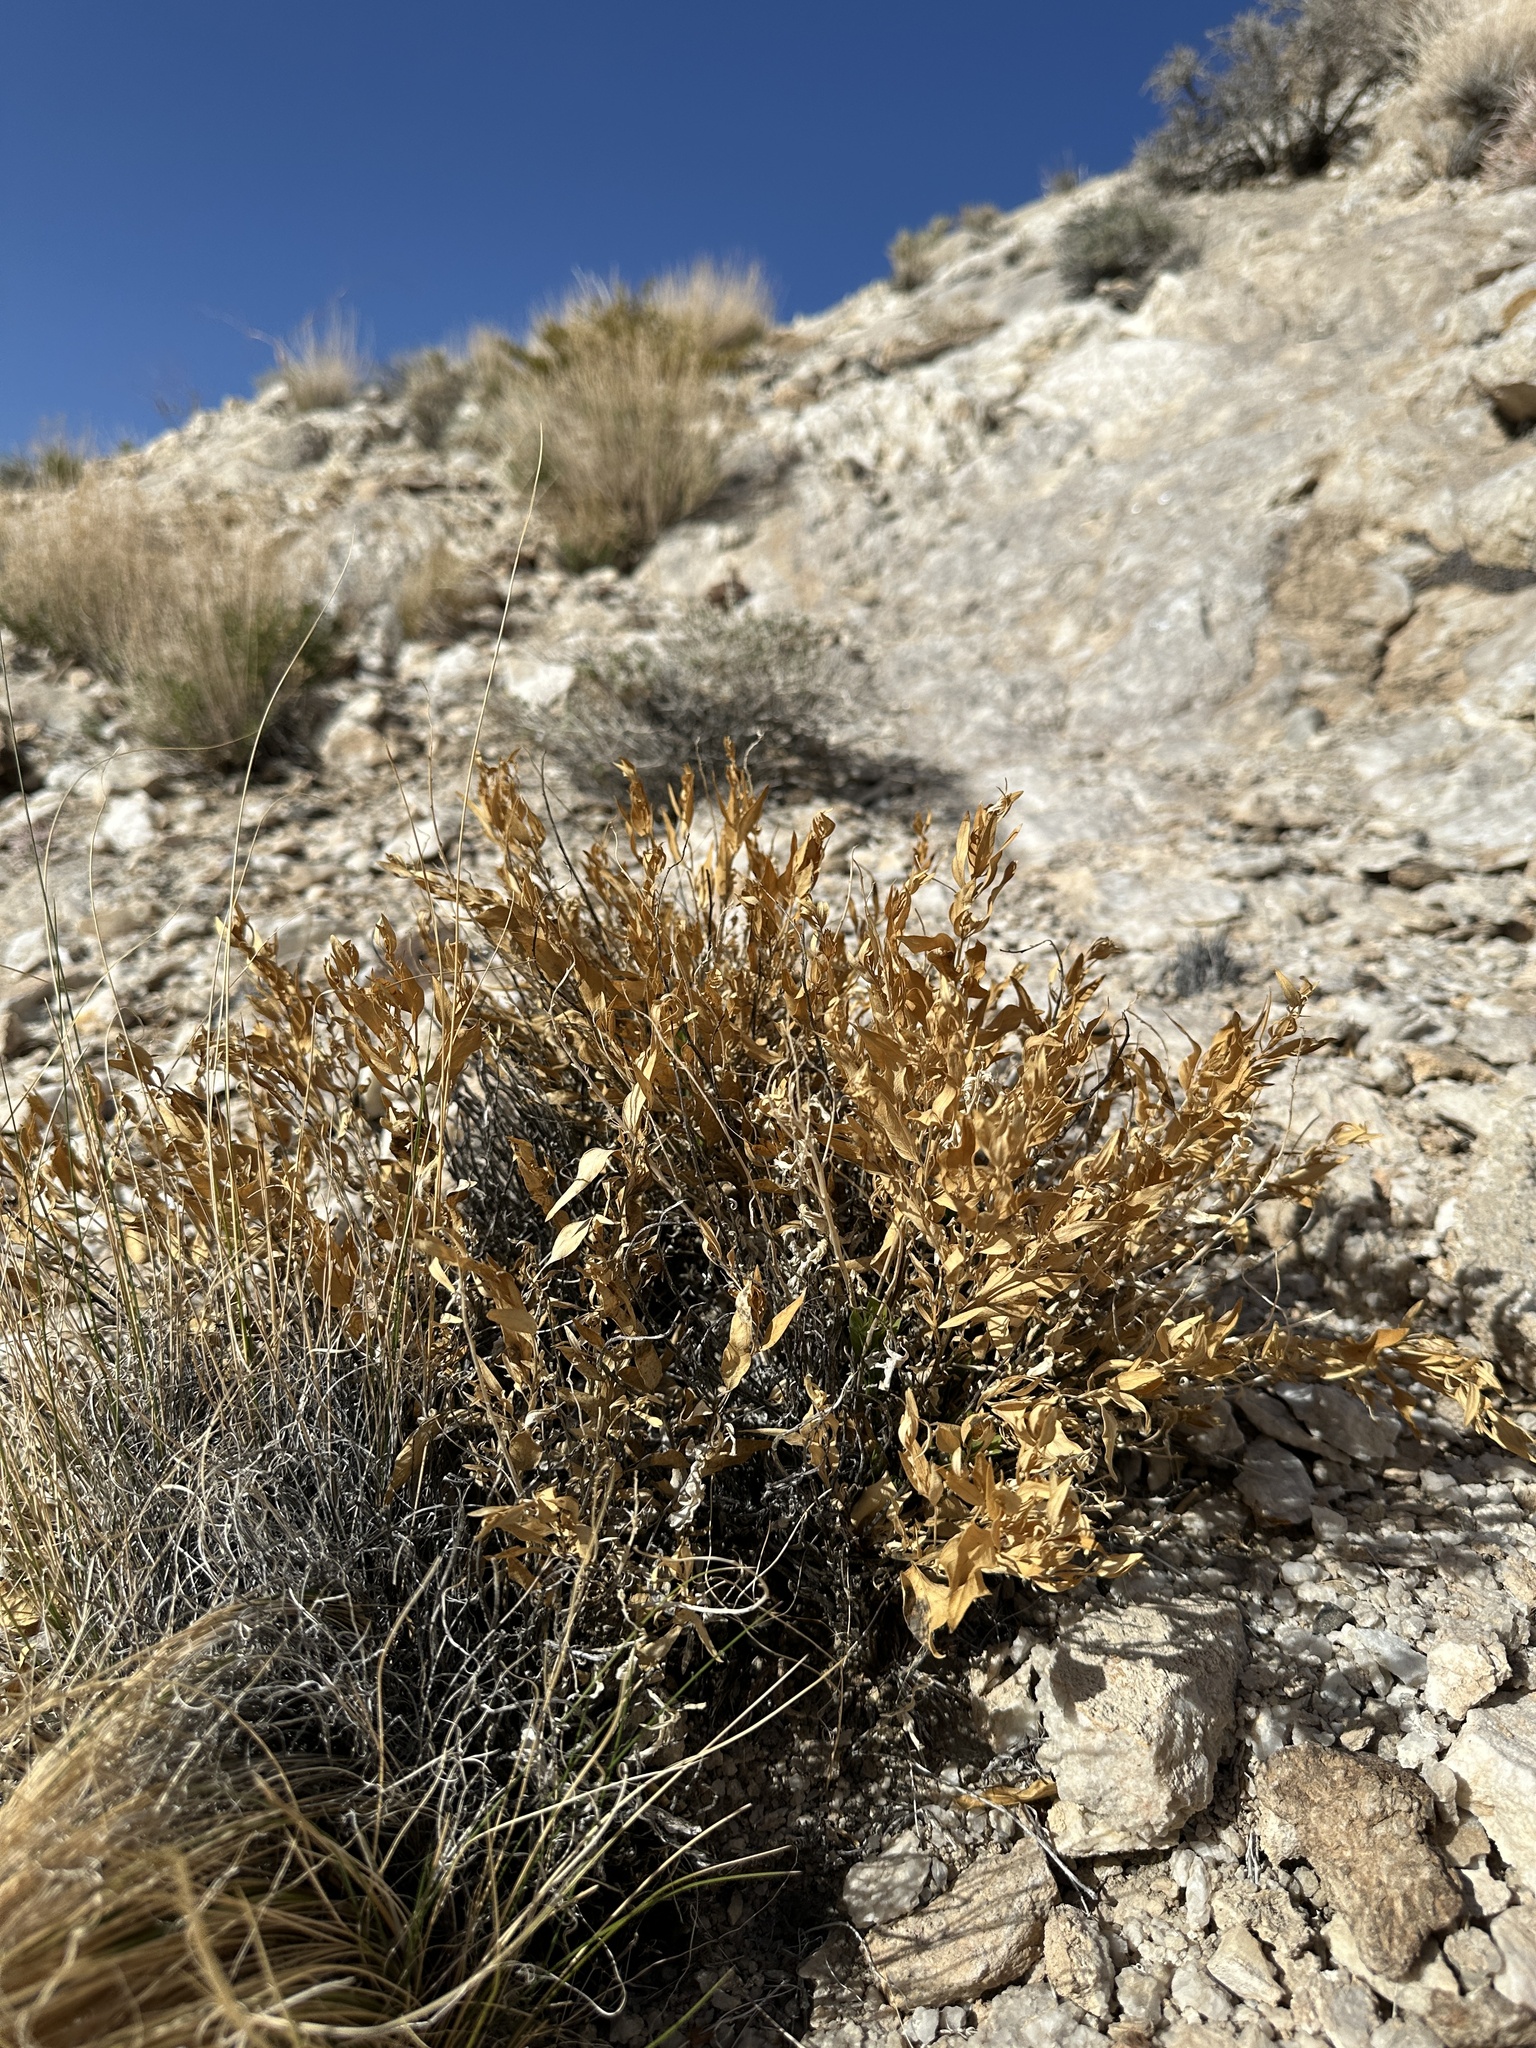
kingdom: Plantae
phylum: Tracheophyta
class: Magnoliopsida
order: Gentianales
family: Apocynaceae
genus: Amsonia
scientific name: Amsonia tomentosa
